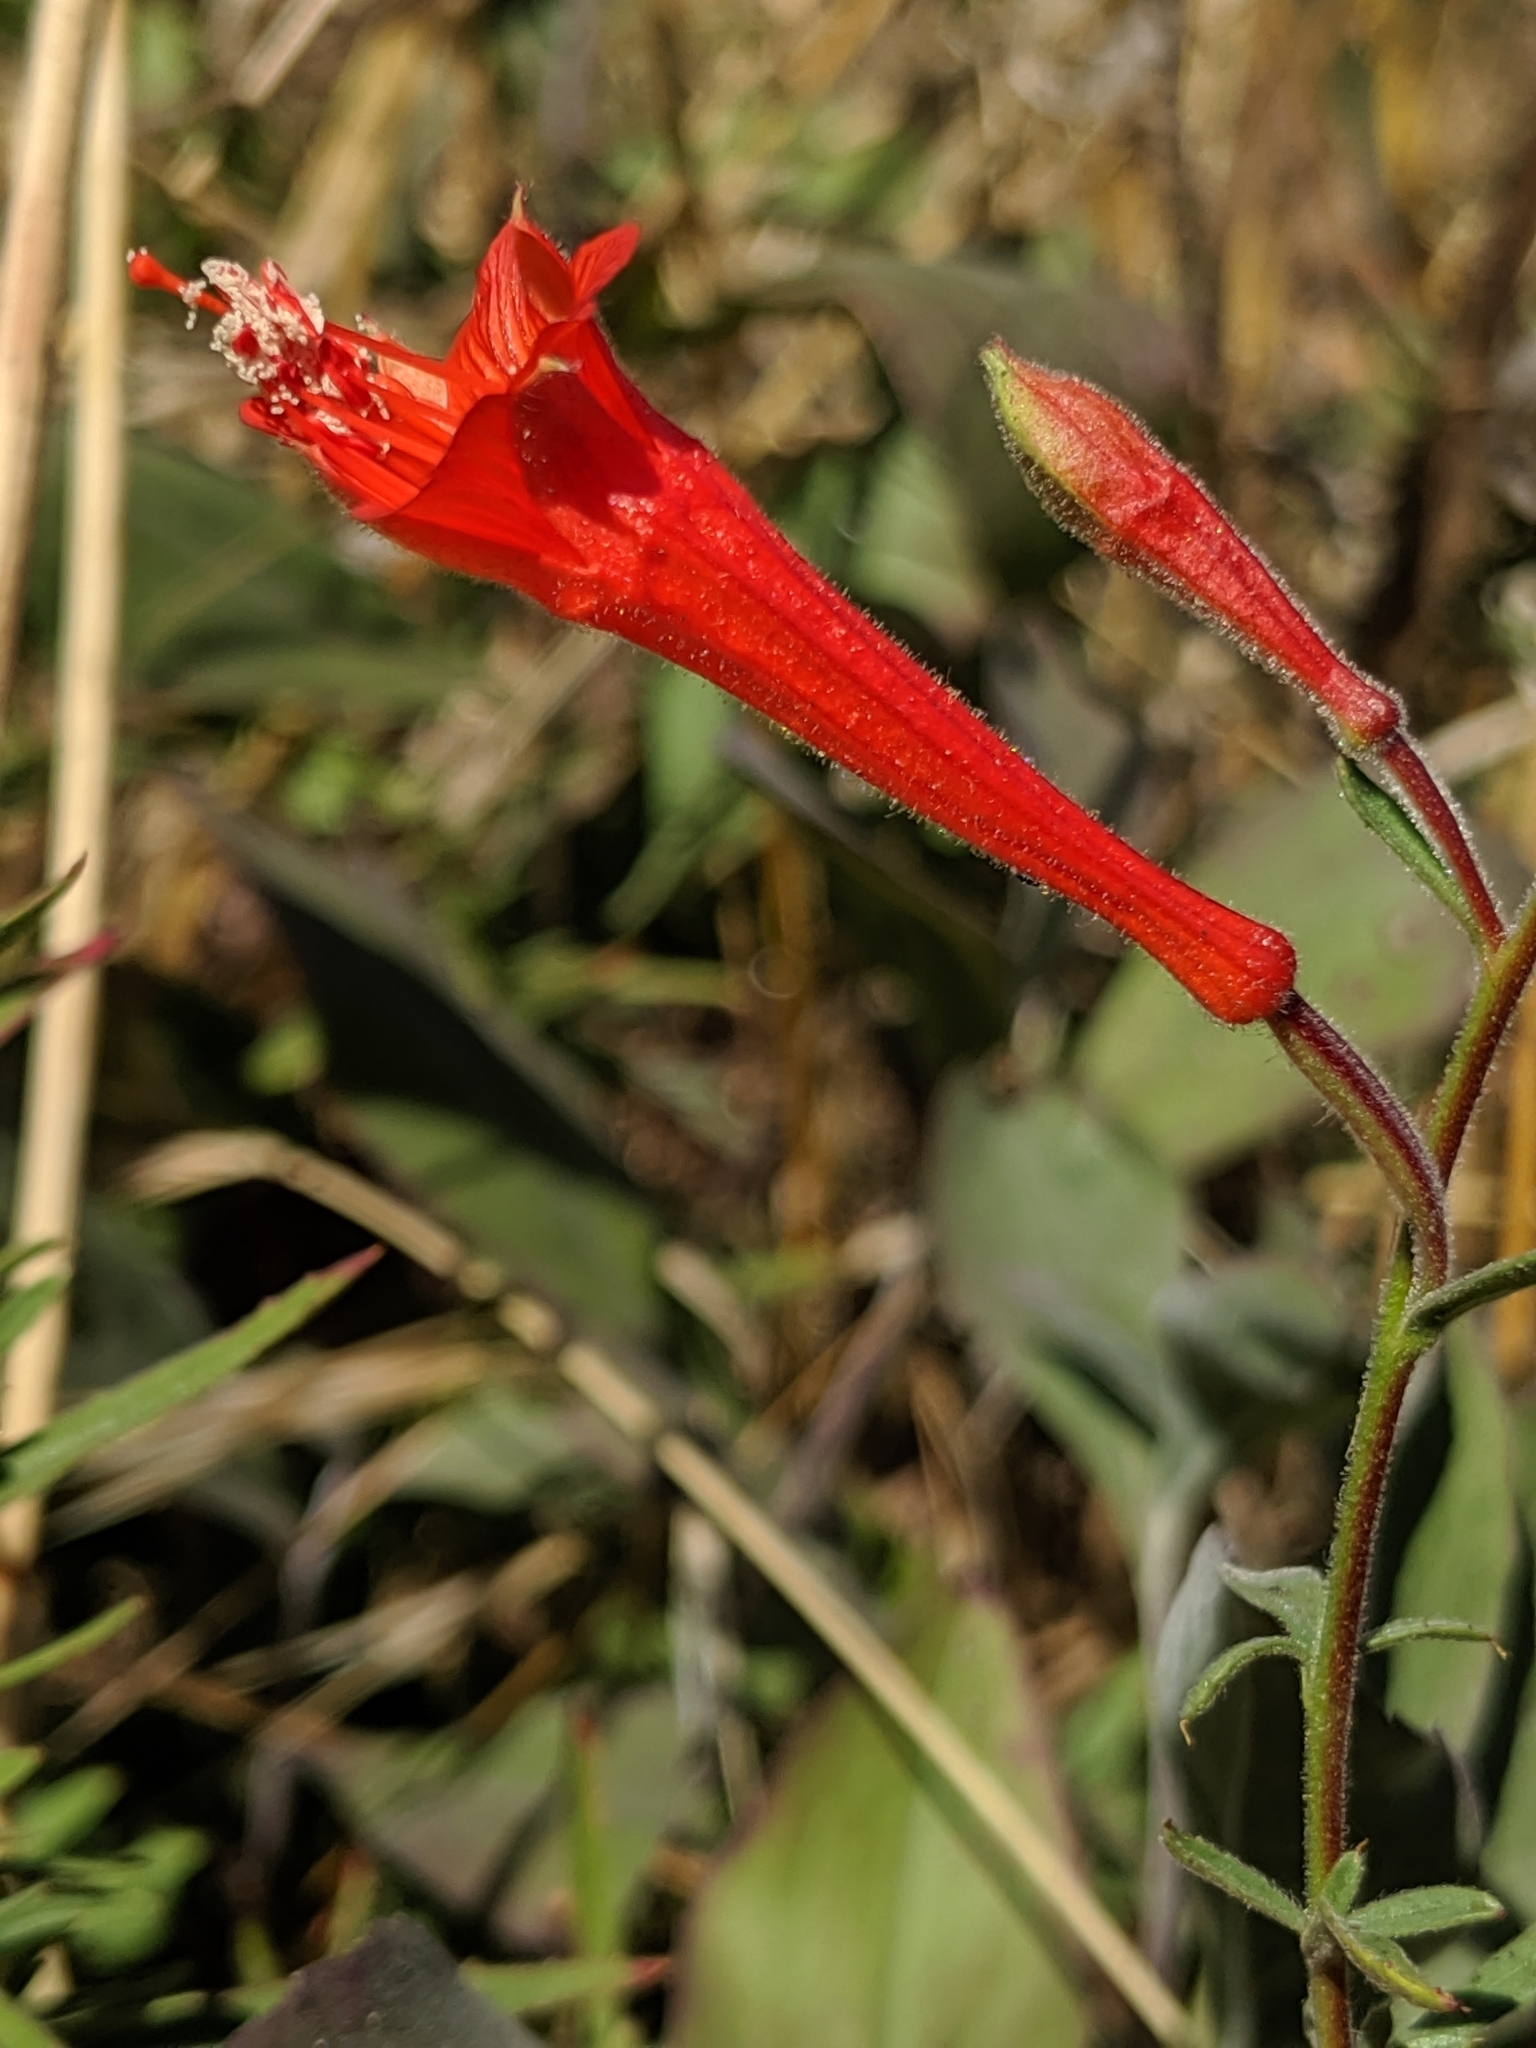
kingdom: Plantae
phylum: Tracheophyta
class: Magnoliopsida
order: Myrtales
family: Onagraceae
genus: Epilobium
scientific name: Epilobium canum
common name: California-fuchsia
